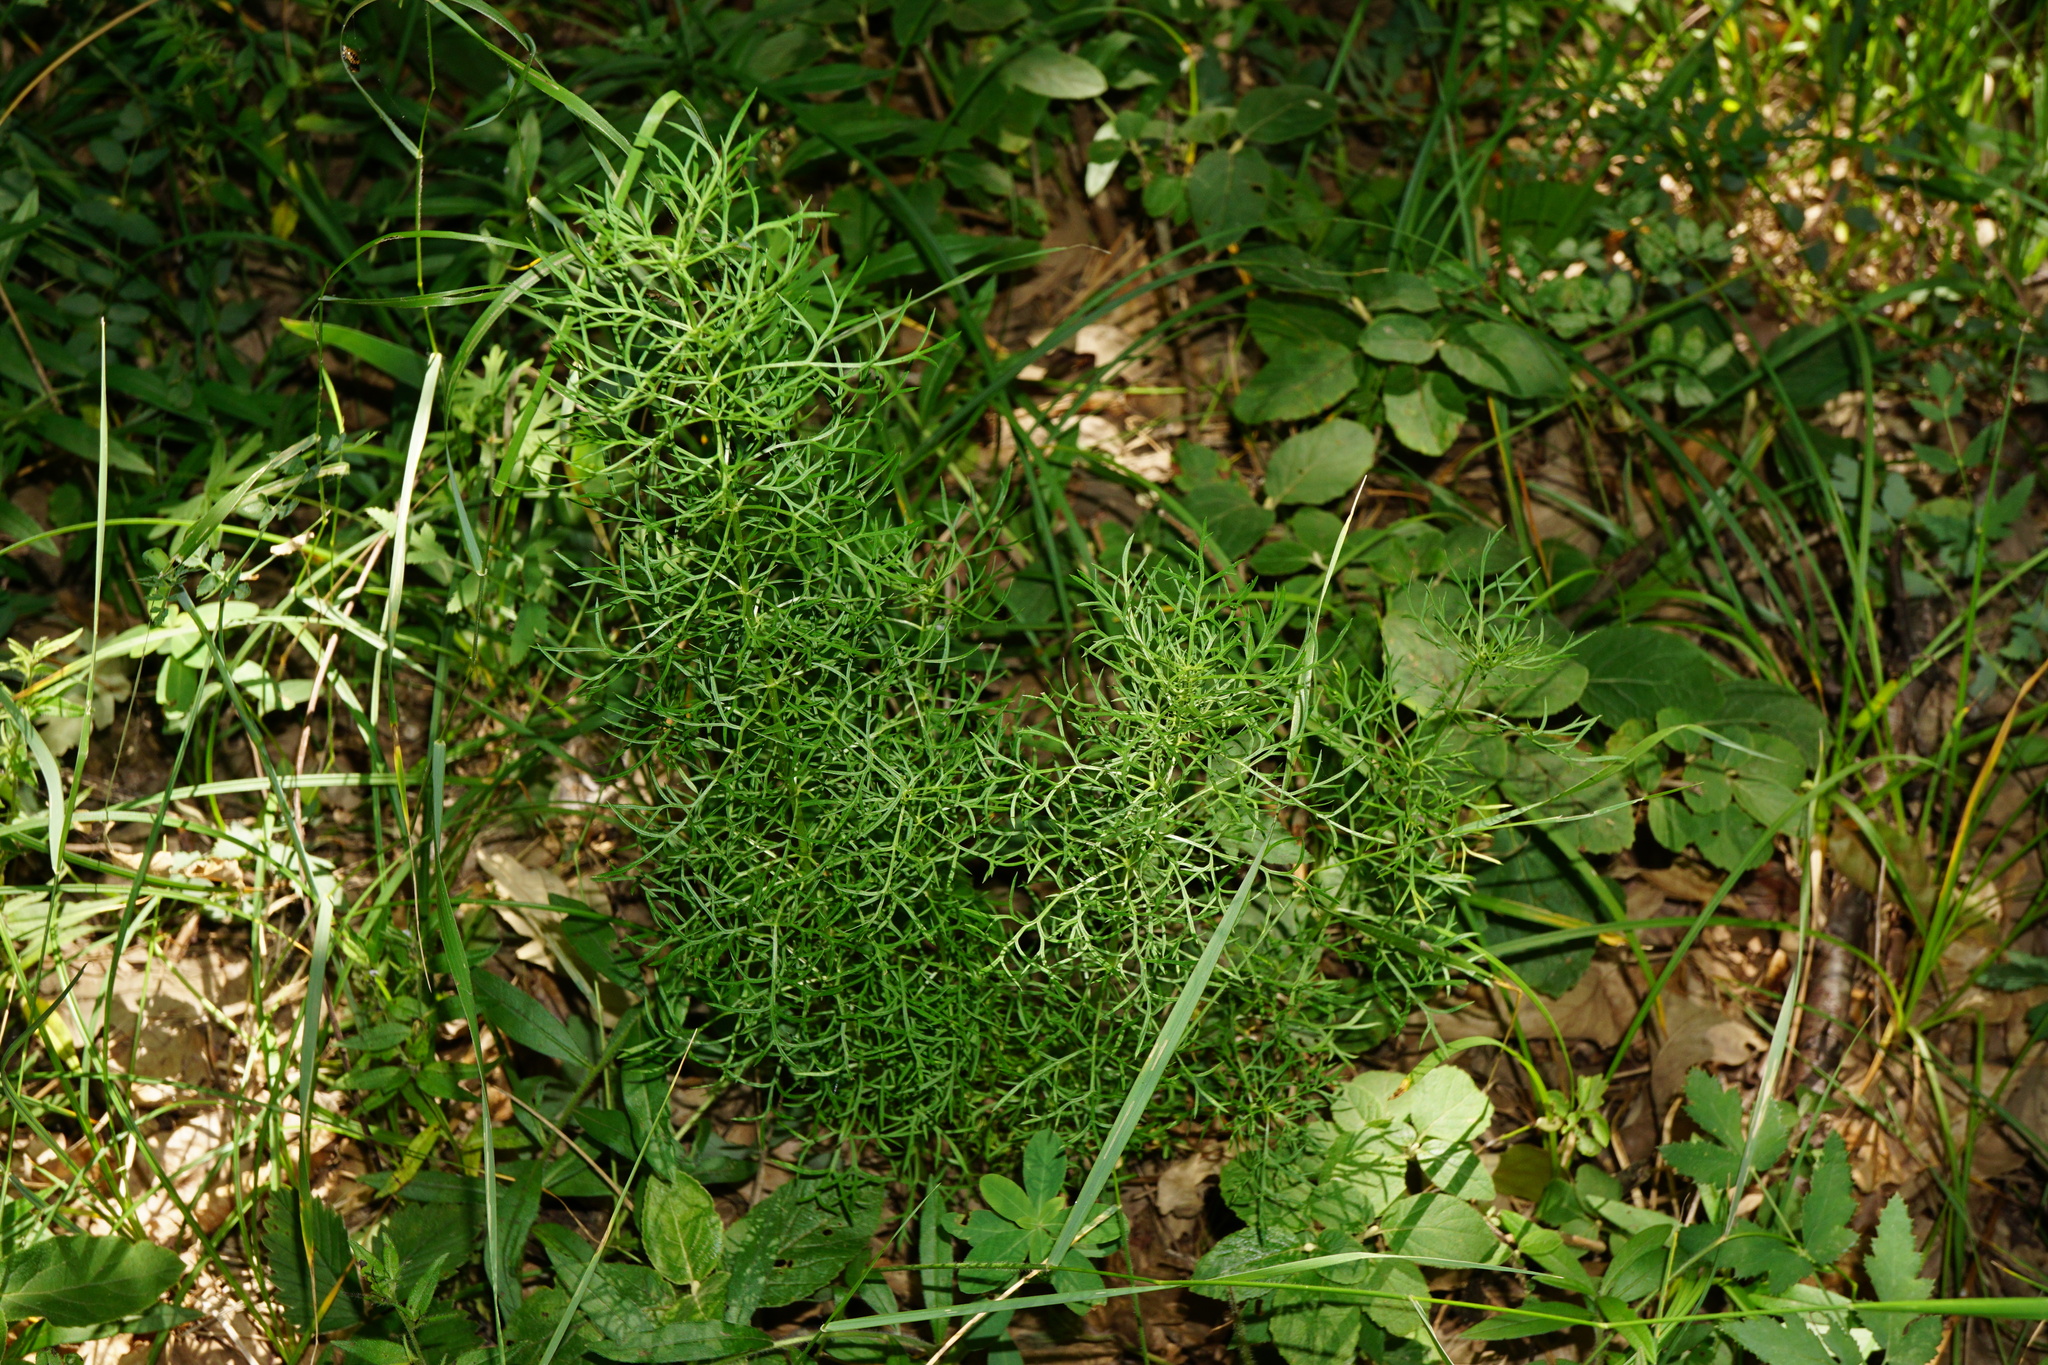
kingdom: Plantae
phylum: Tracheophyta
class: Magnoliopsida
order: Ranunculales
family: Ranunculaceae
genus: Adonis
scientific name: Adonis vernalis
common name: Yellow pheasants-eye
